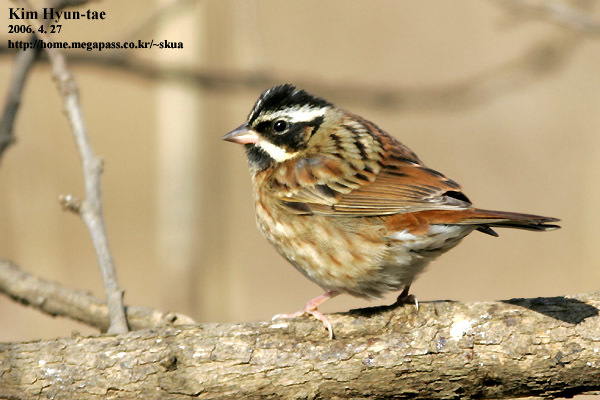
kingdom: Animalia
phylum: Chordata
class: Aves
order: Passeriformes
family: Emberizidae
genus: Emberiza
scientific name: Emberiza tristrami
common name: Tristram's bunting
